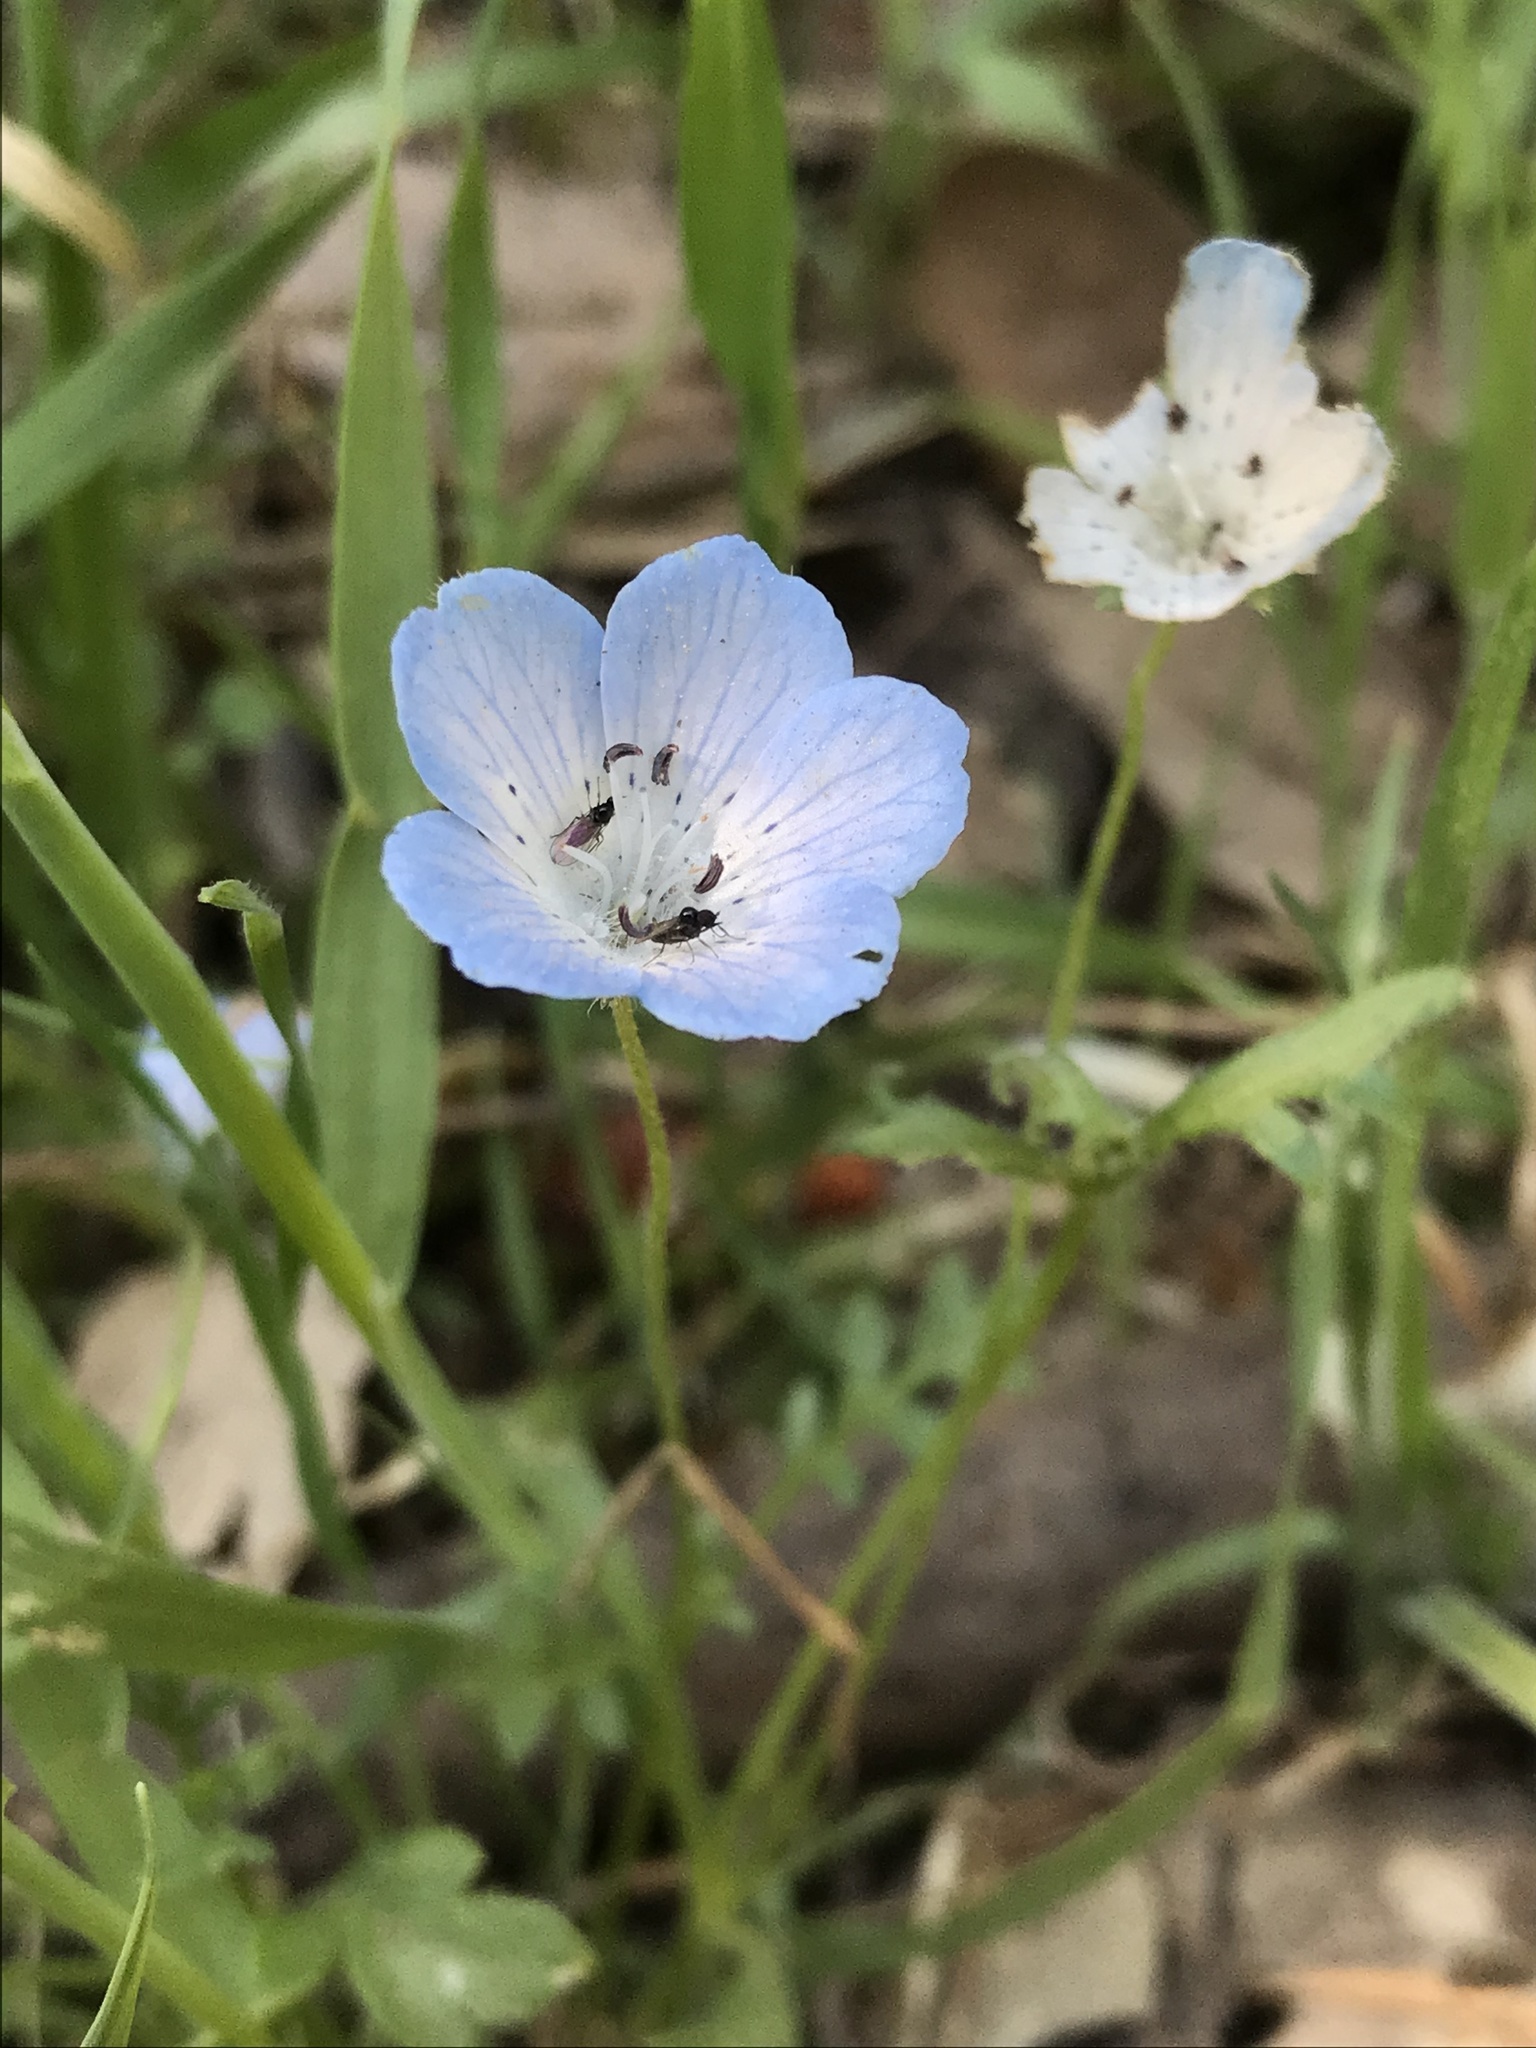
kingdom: Plantae
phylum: Tracheophyta
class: Magnoliopsida
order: Boraginales
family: Hydrophyllaceae
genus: Nemophila
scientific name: Nemophila menziesii
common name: Baby's-blue-eyes
